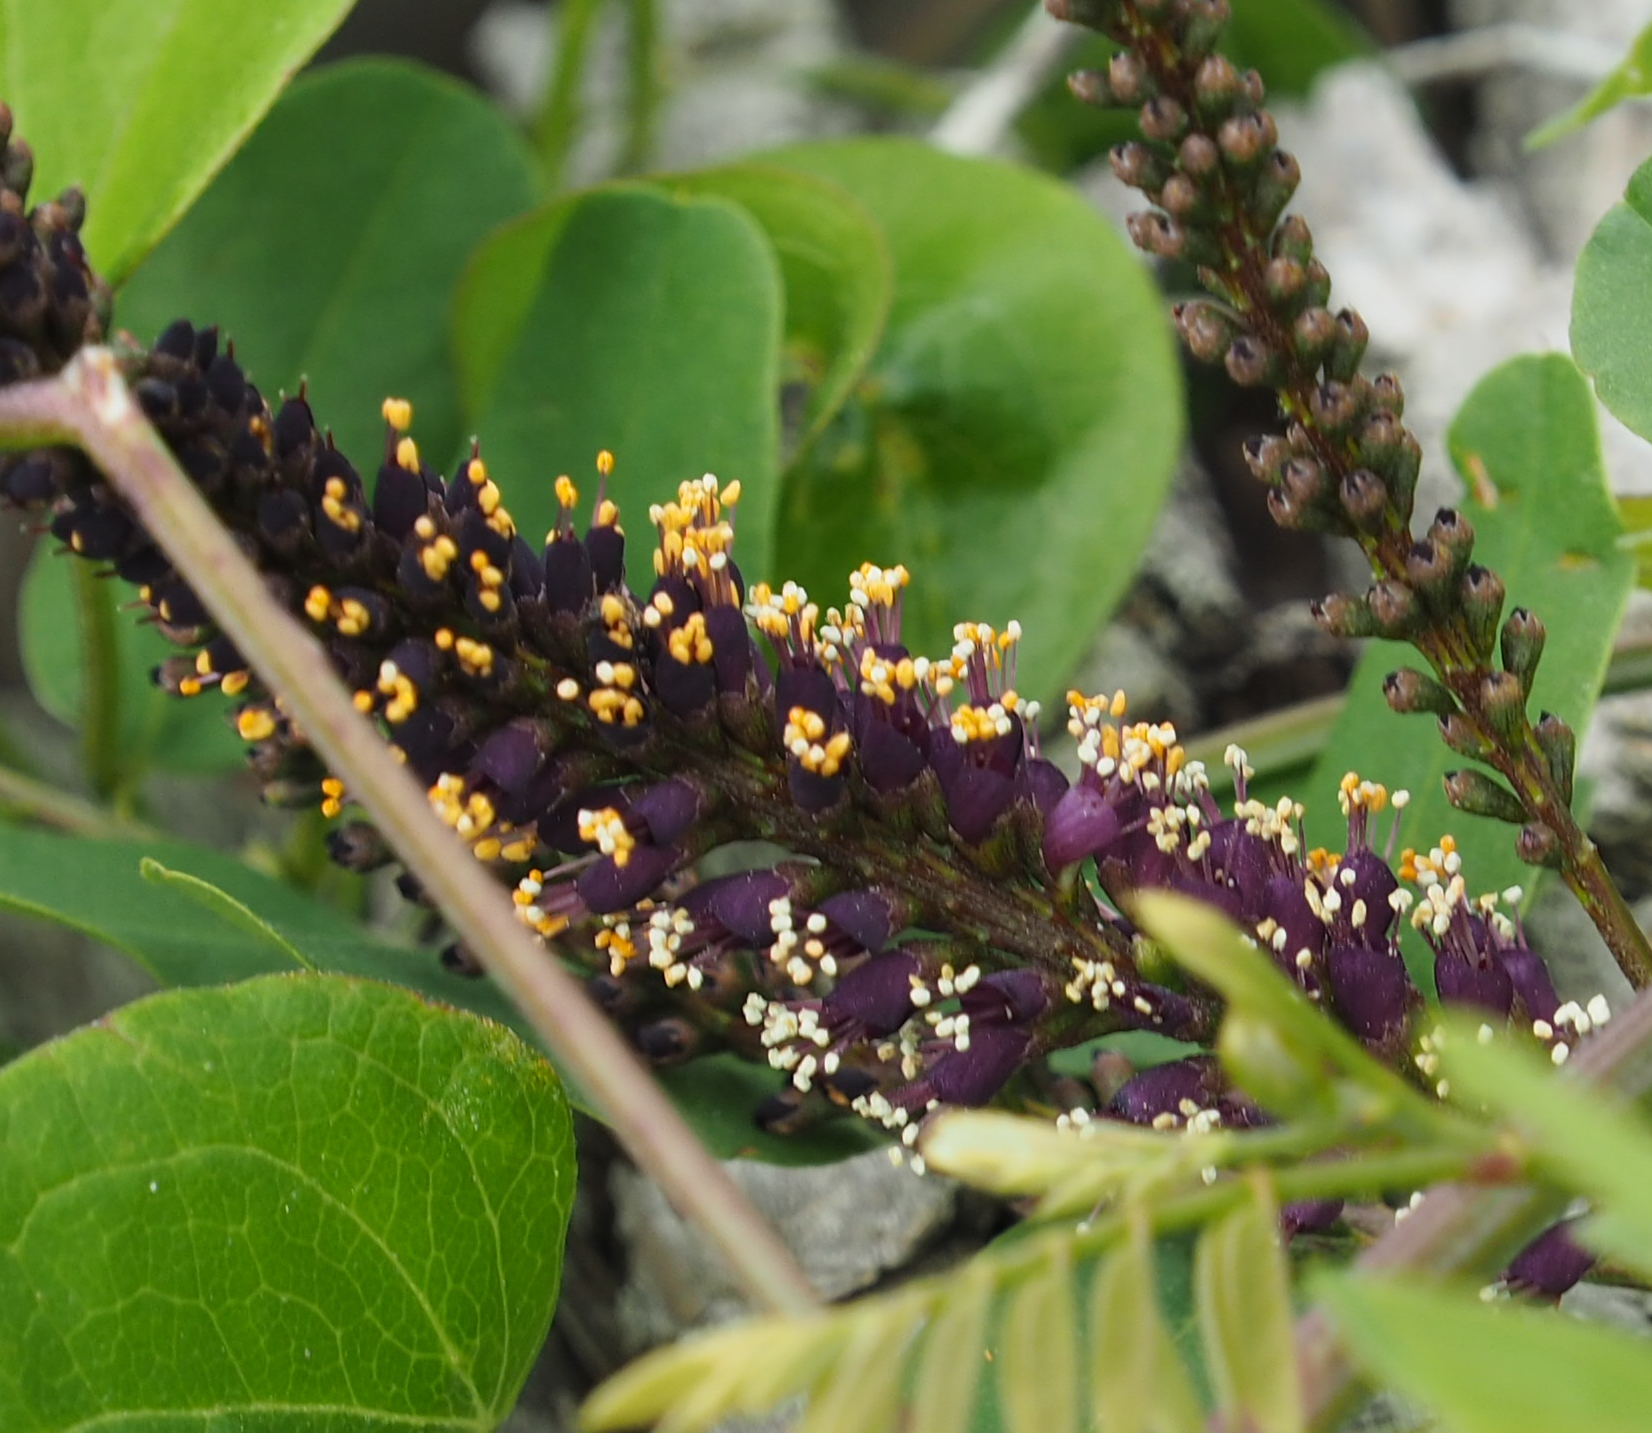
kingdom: Plantae
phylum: Tracheophyta
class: Magnoliopsida
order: Fabales
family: Fabaceae
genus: Amorpha
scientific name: Amorpha fruticosa
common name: False indigo
